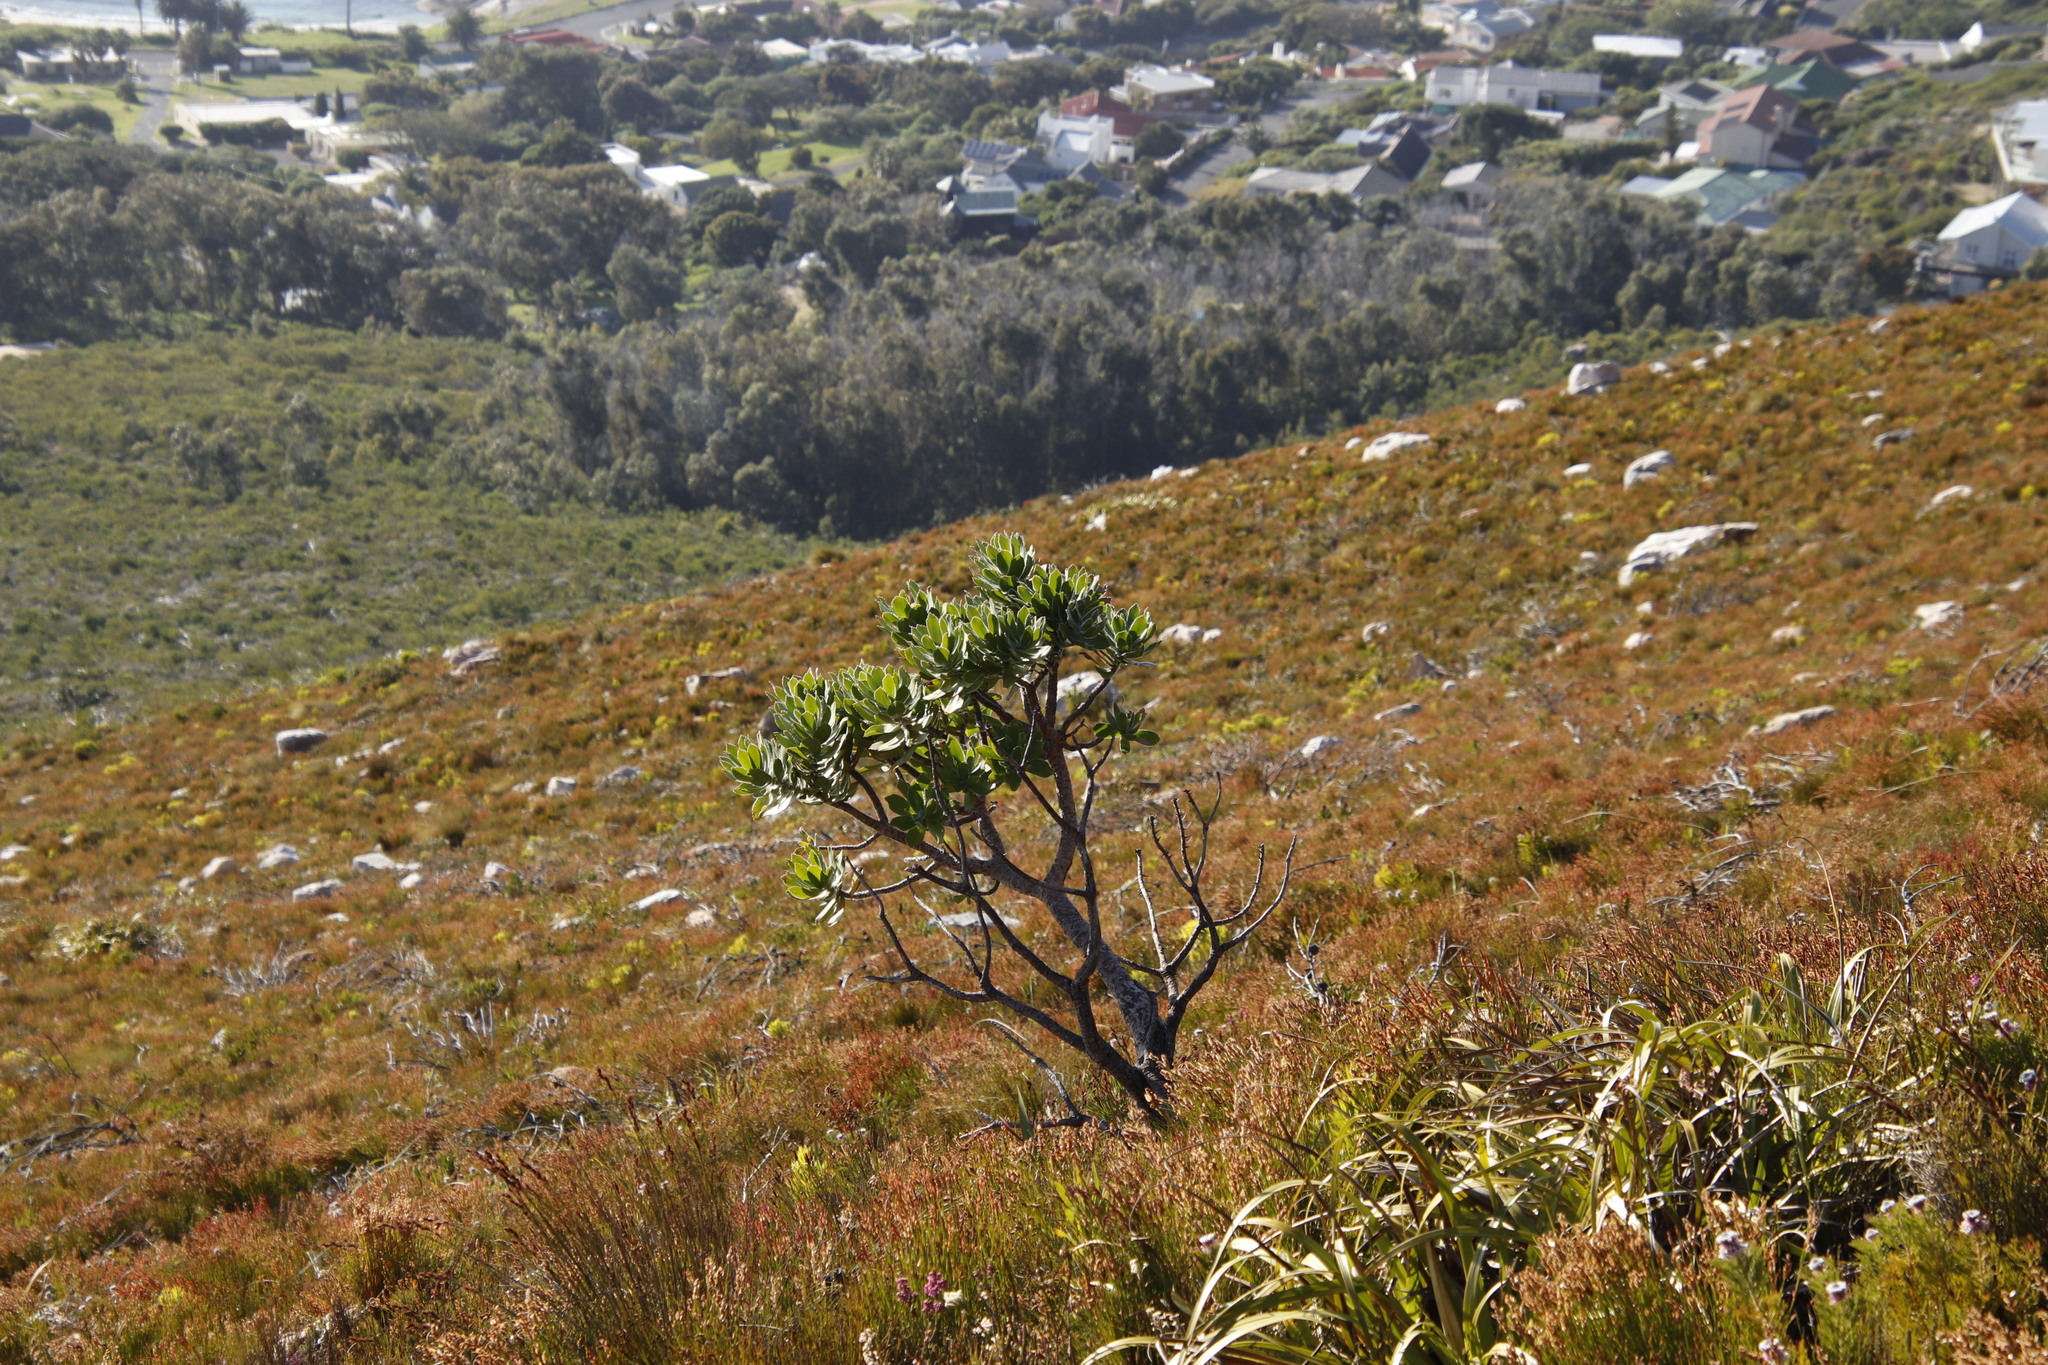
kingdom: Plantae
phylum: Tracheophyta
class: Magnoliopsida
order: Proteales
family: Proteaceae
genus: Leucospermum
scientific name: Leucospermum conocarpodendron
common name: Tree pincushion
